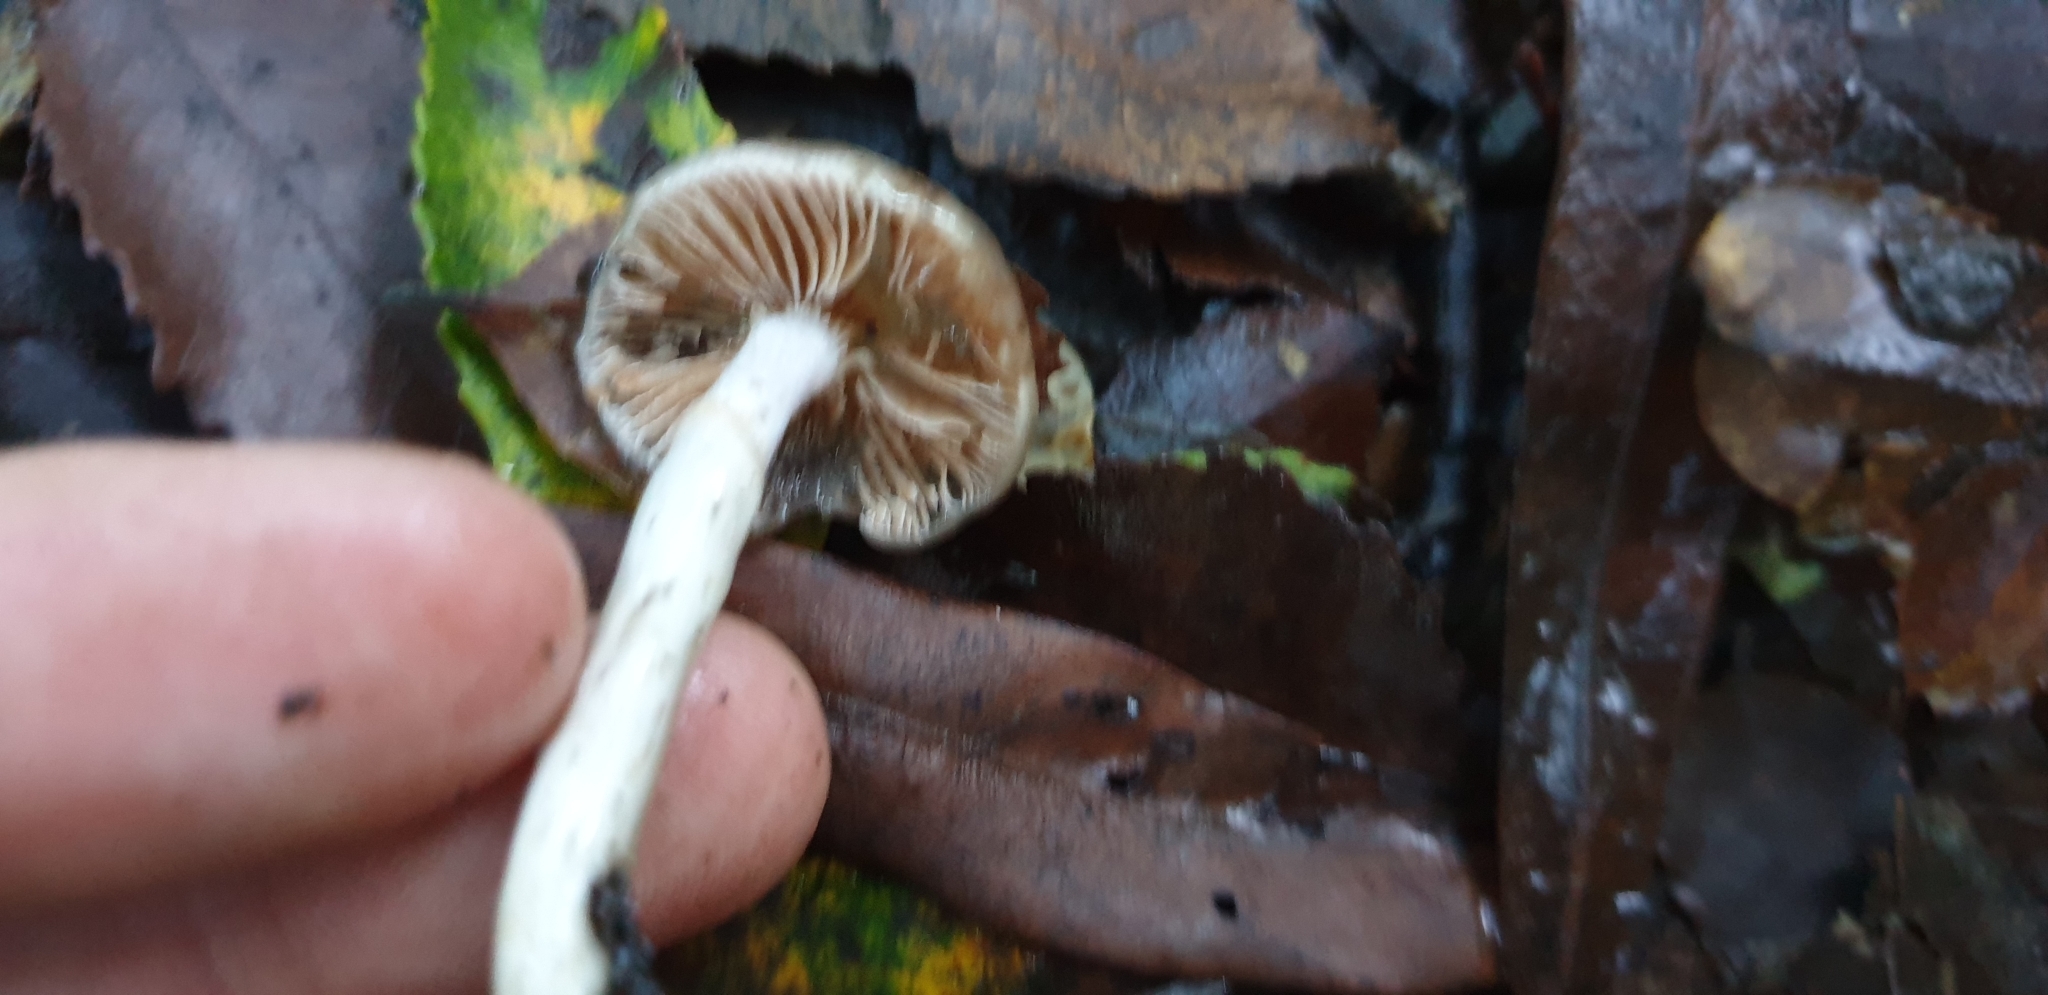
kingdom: Fungi
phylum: Basidiomycota
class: Agaricomycetes
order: Agaricales
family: Cortinariaceae
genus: Cortinarius
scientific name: Cortinarius lubricanescens
